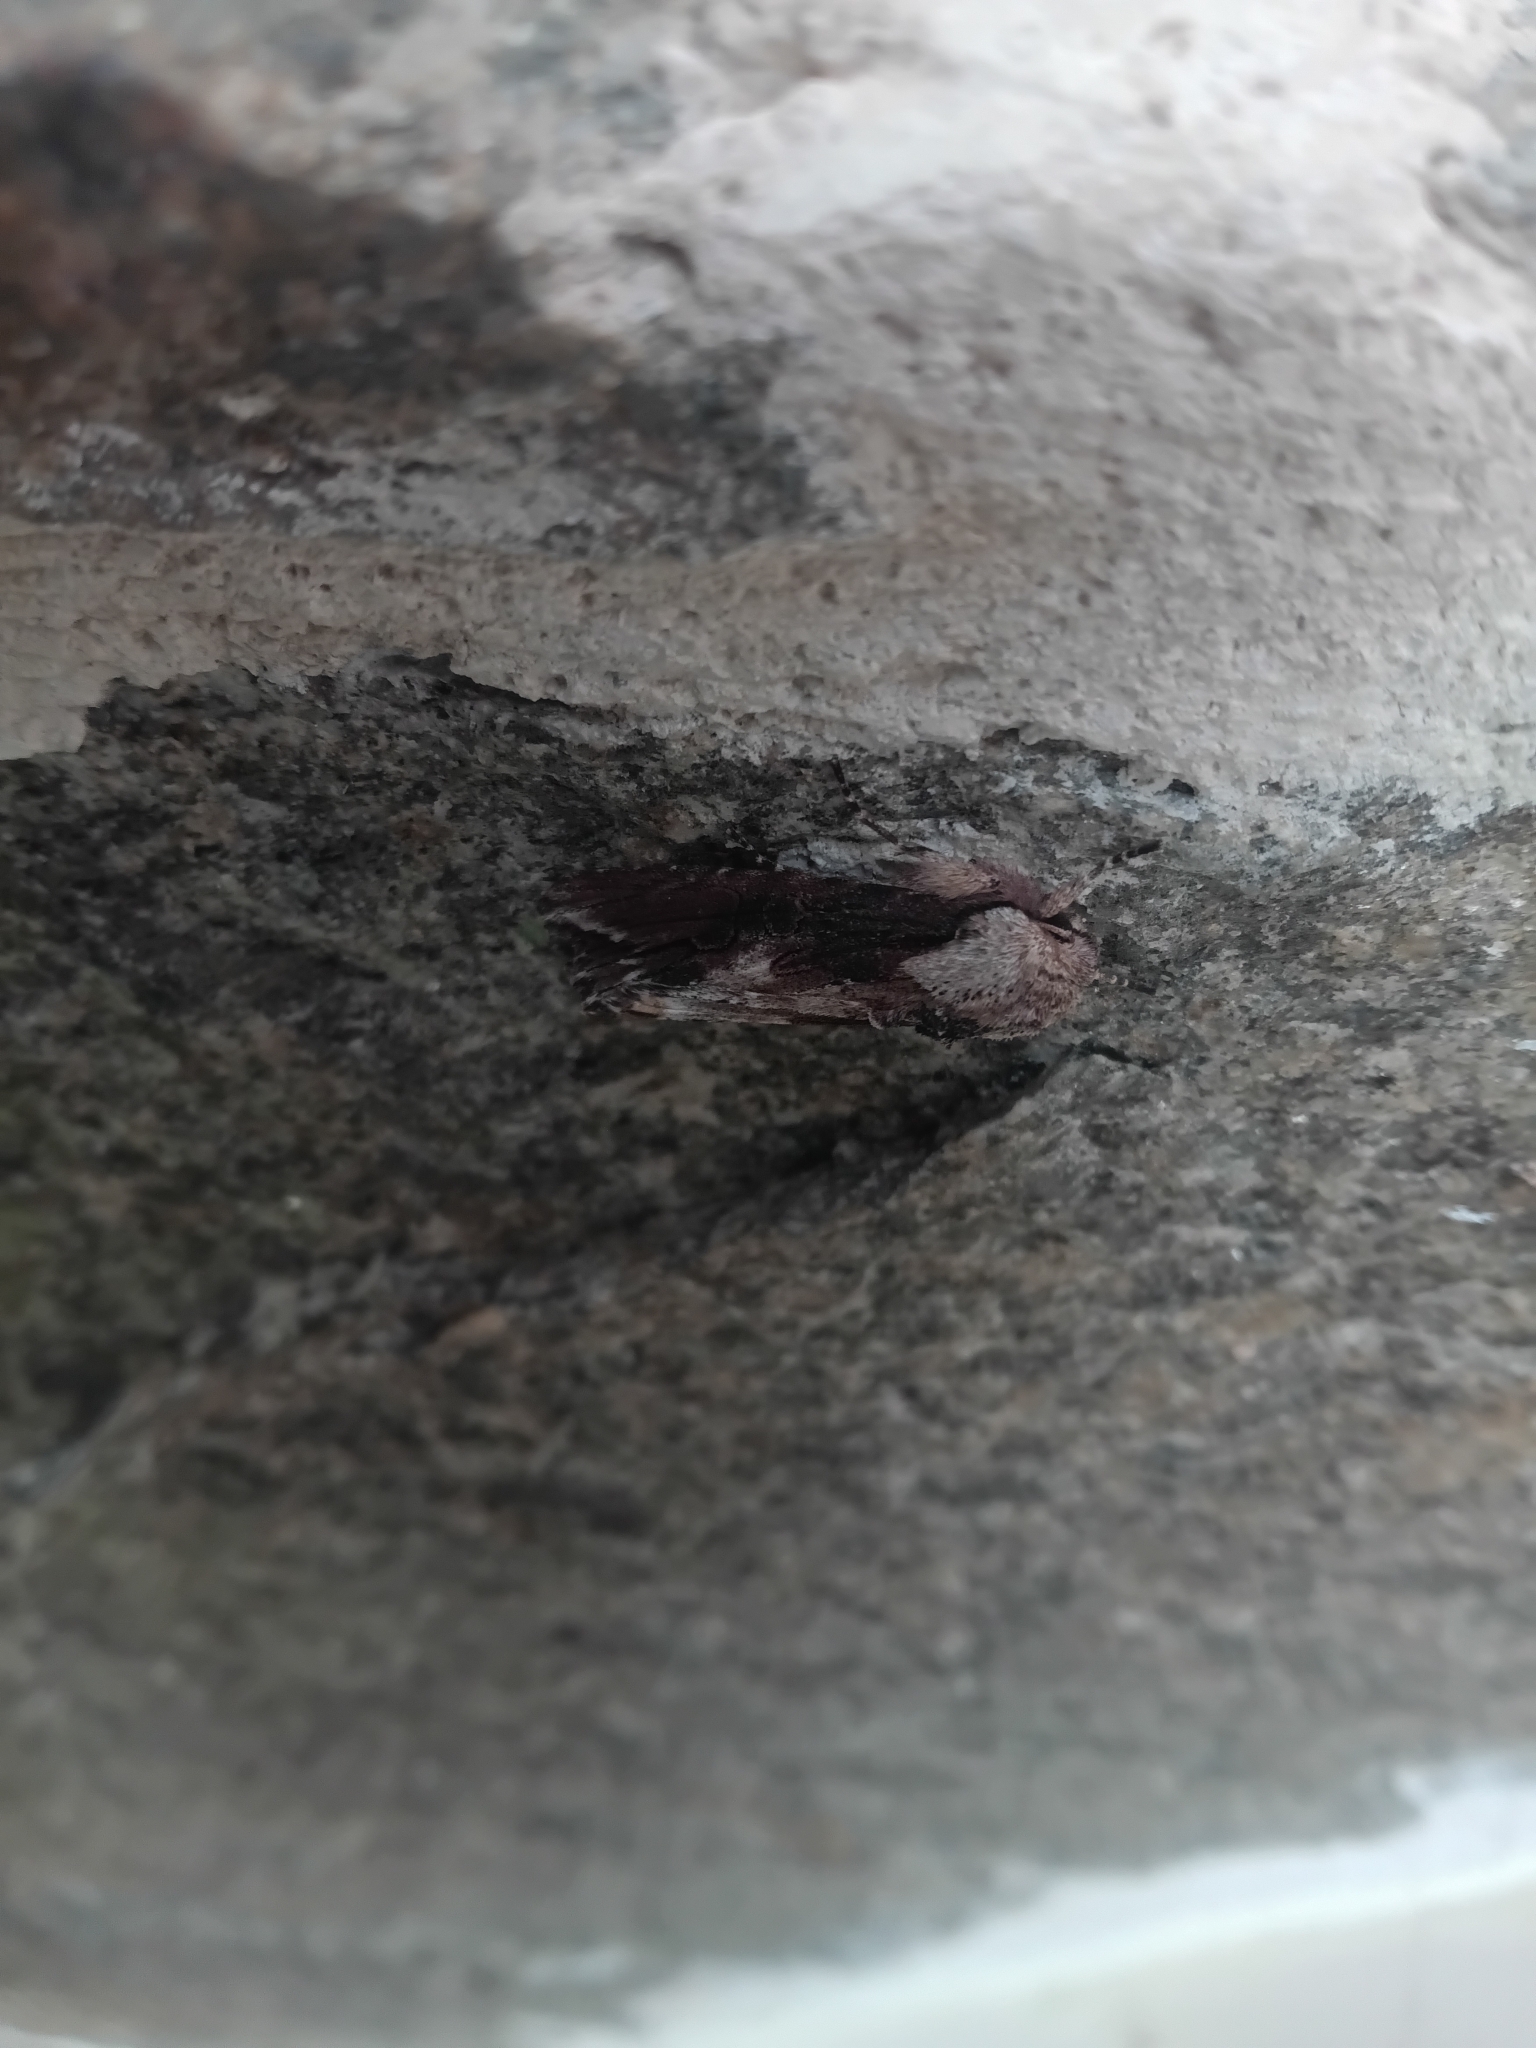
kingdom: Animalia
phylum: Arthropoda
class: Insecta
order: Lepidoptera
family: Noctuidae
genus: Egira
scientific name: Egira
